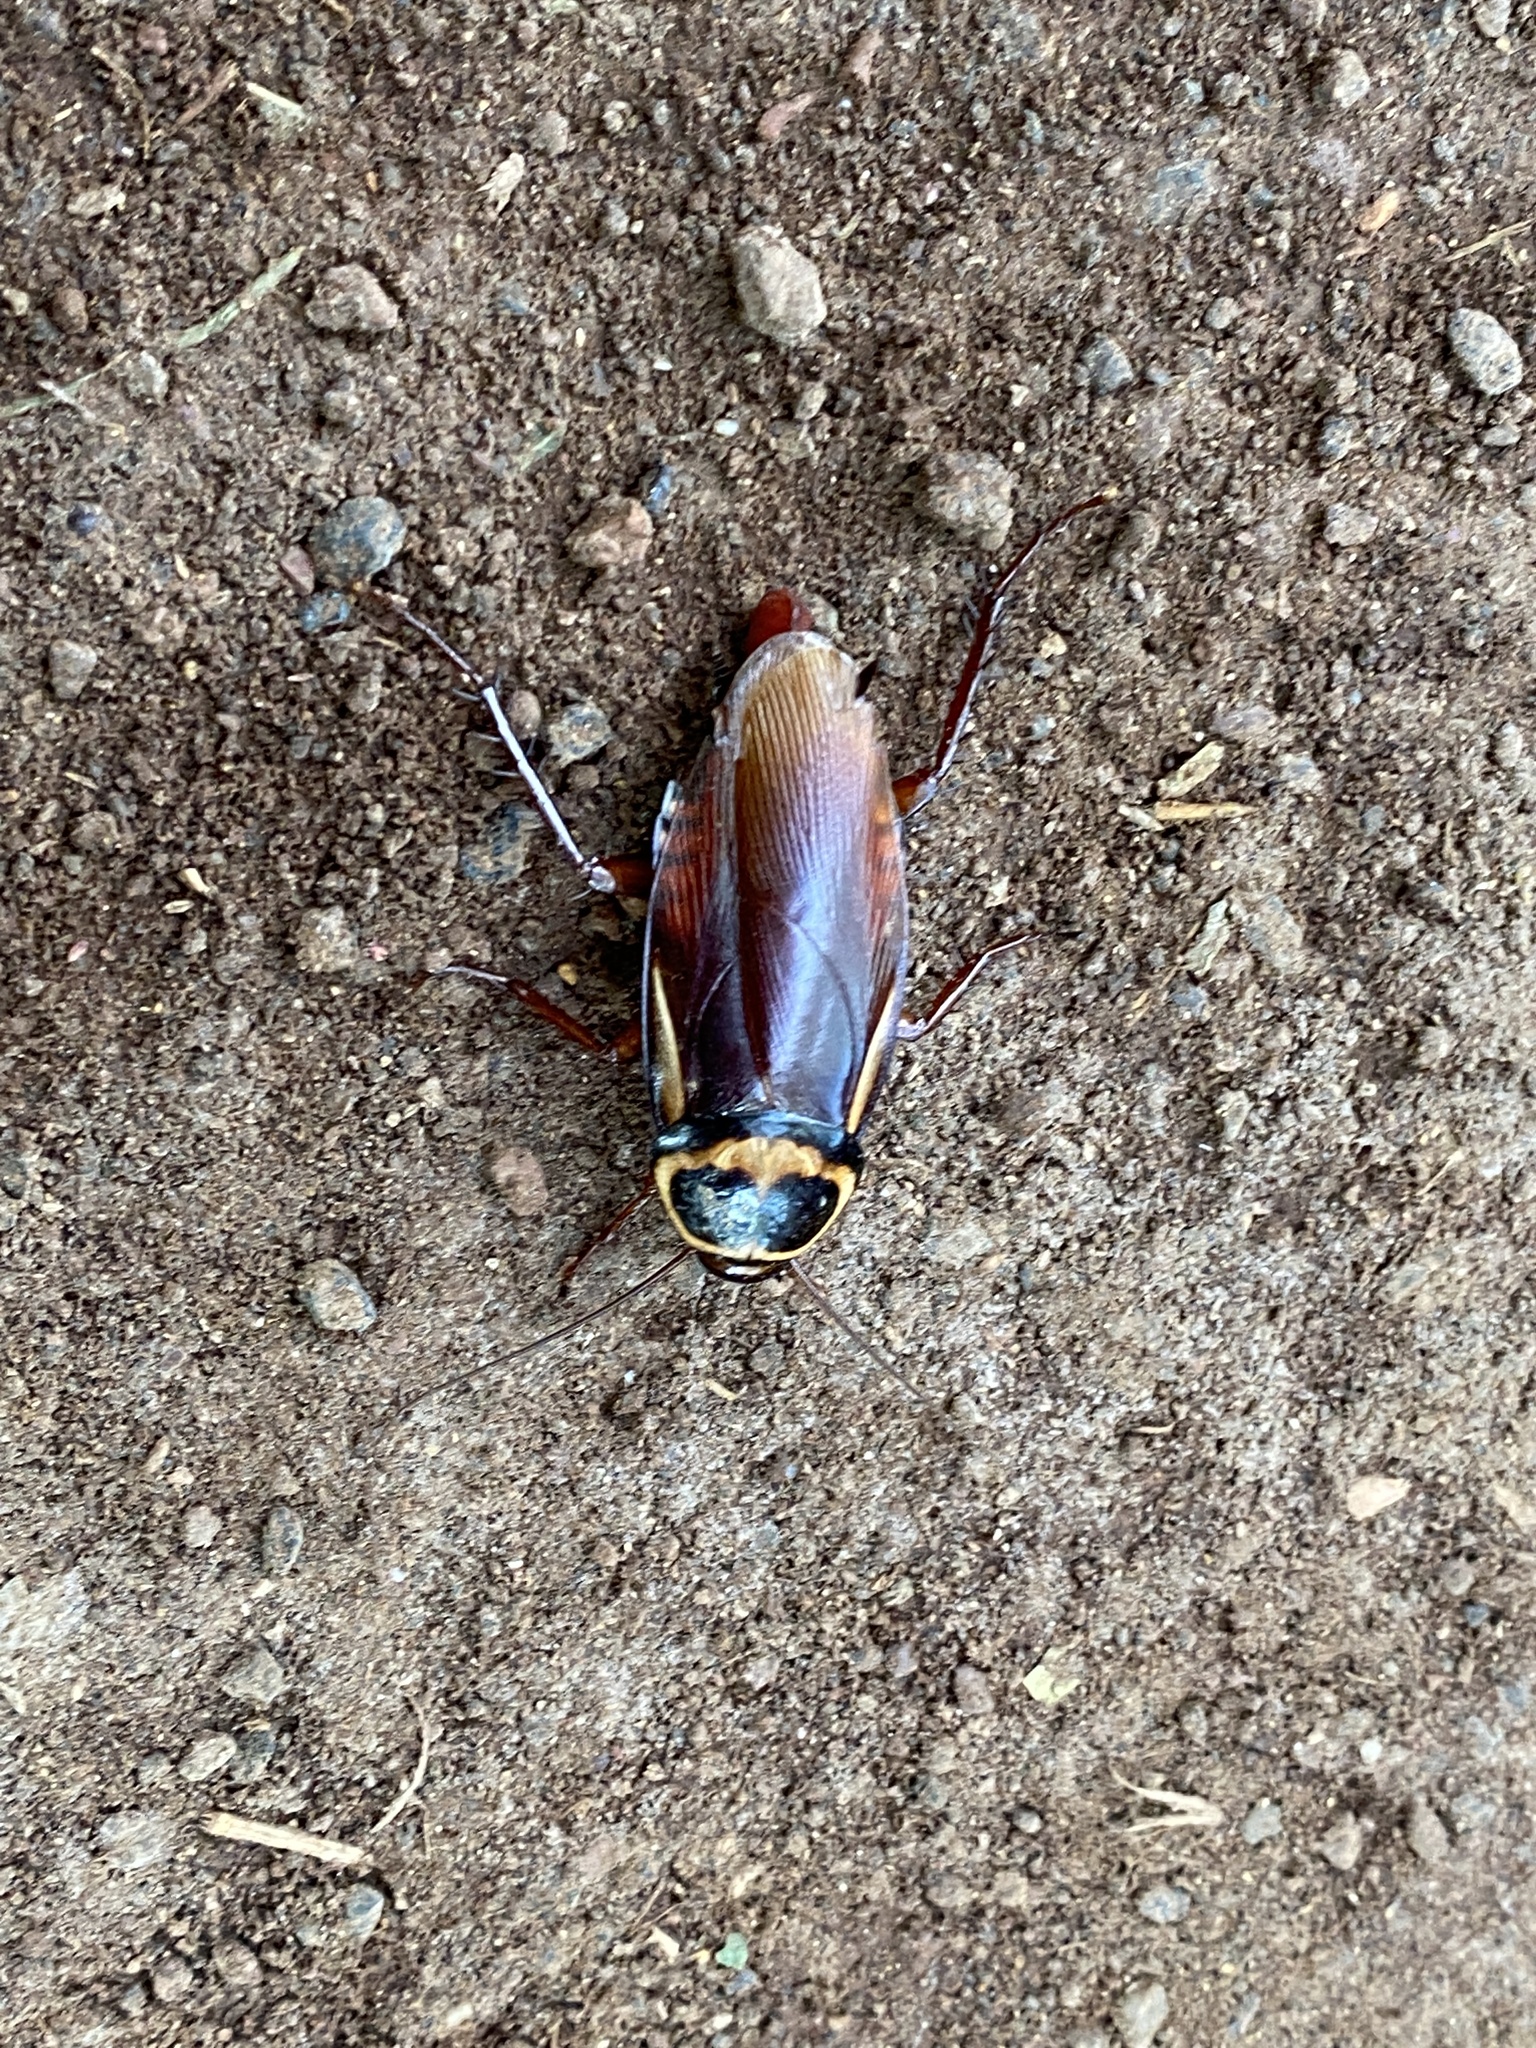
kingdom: Animalia
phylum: Arthropoda
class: Insecta
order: Blattodea
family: Blattidae
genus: Periplaneta
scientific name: Periplaneta australasiae
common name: Australian cockroach
